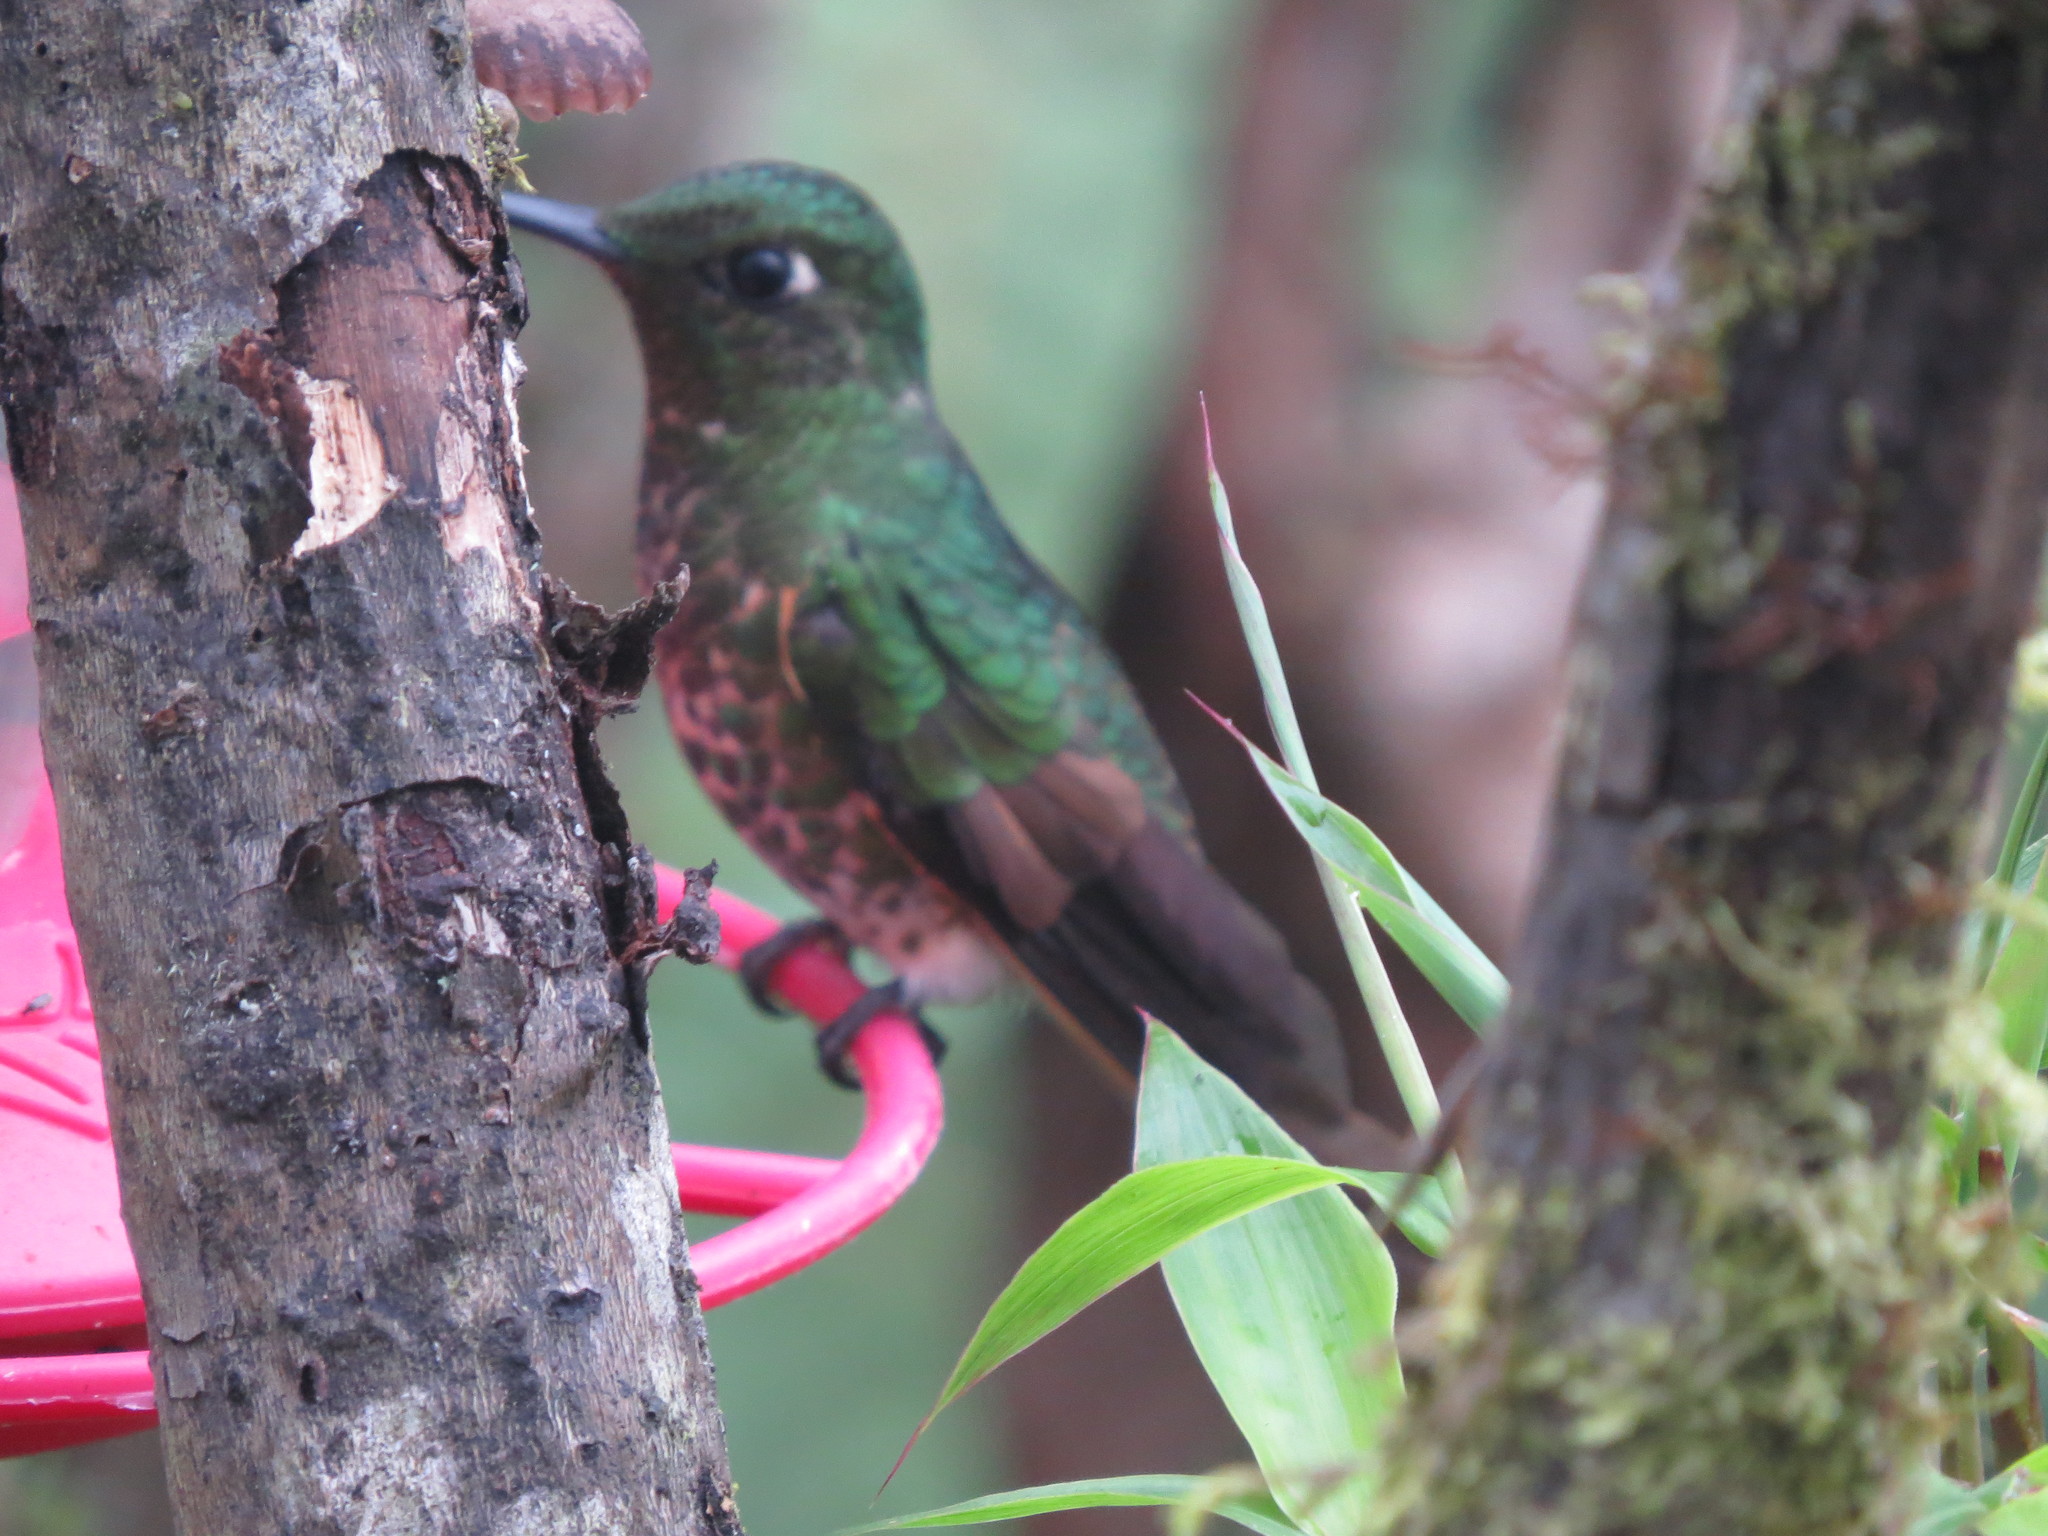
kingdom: Animalia
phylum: Chordata
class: Aves
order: Apodiformes
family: Trochilidae
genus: Heliodoxa
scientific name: Heliodoxa rubinoides
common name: Fawn-breasted brilliant
